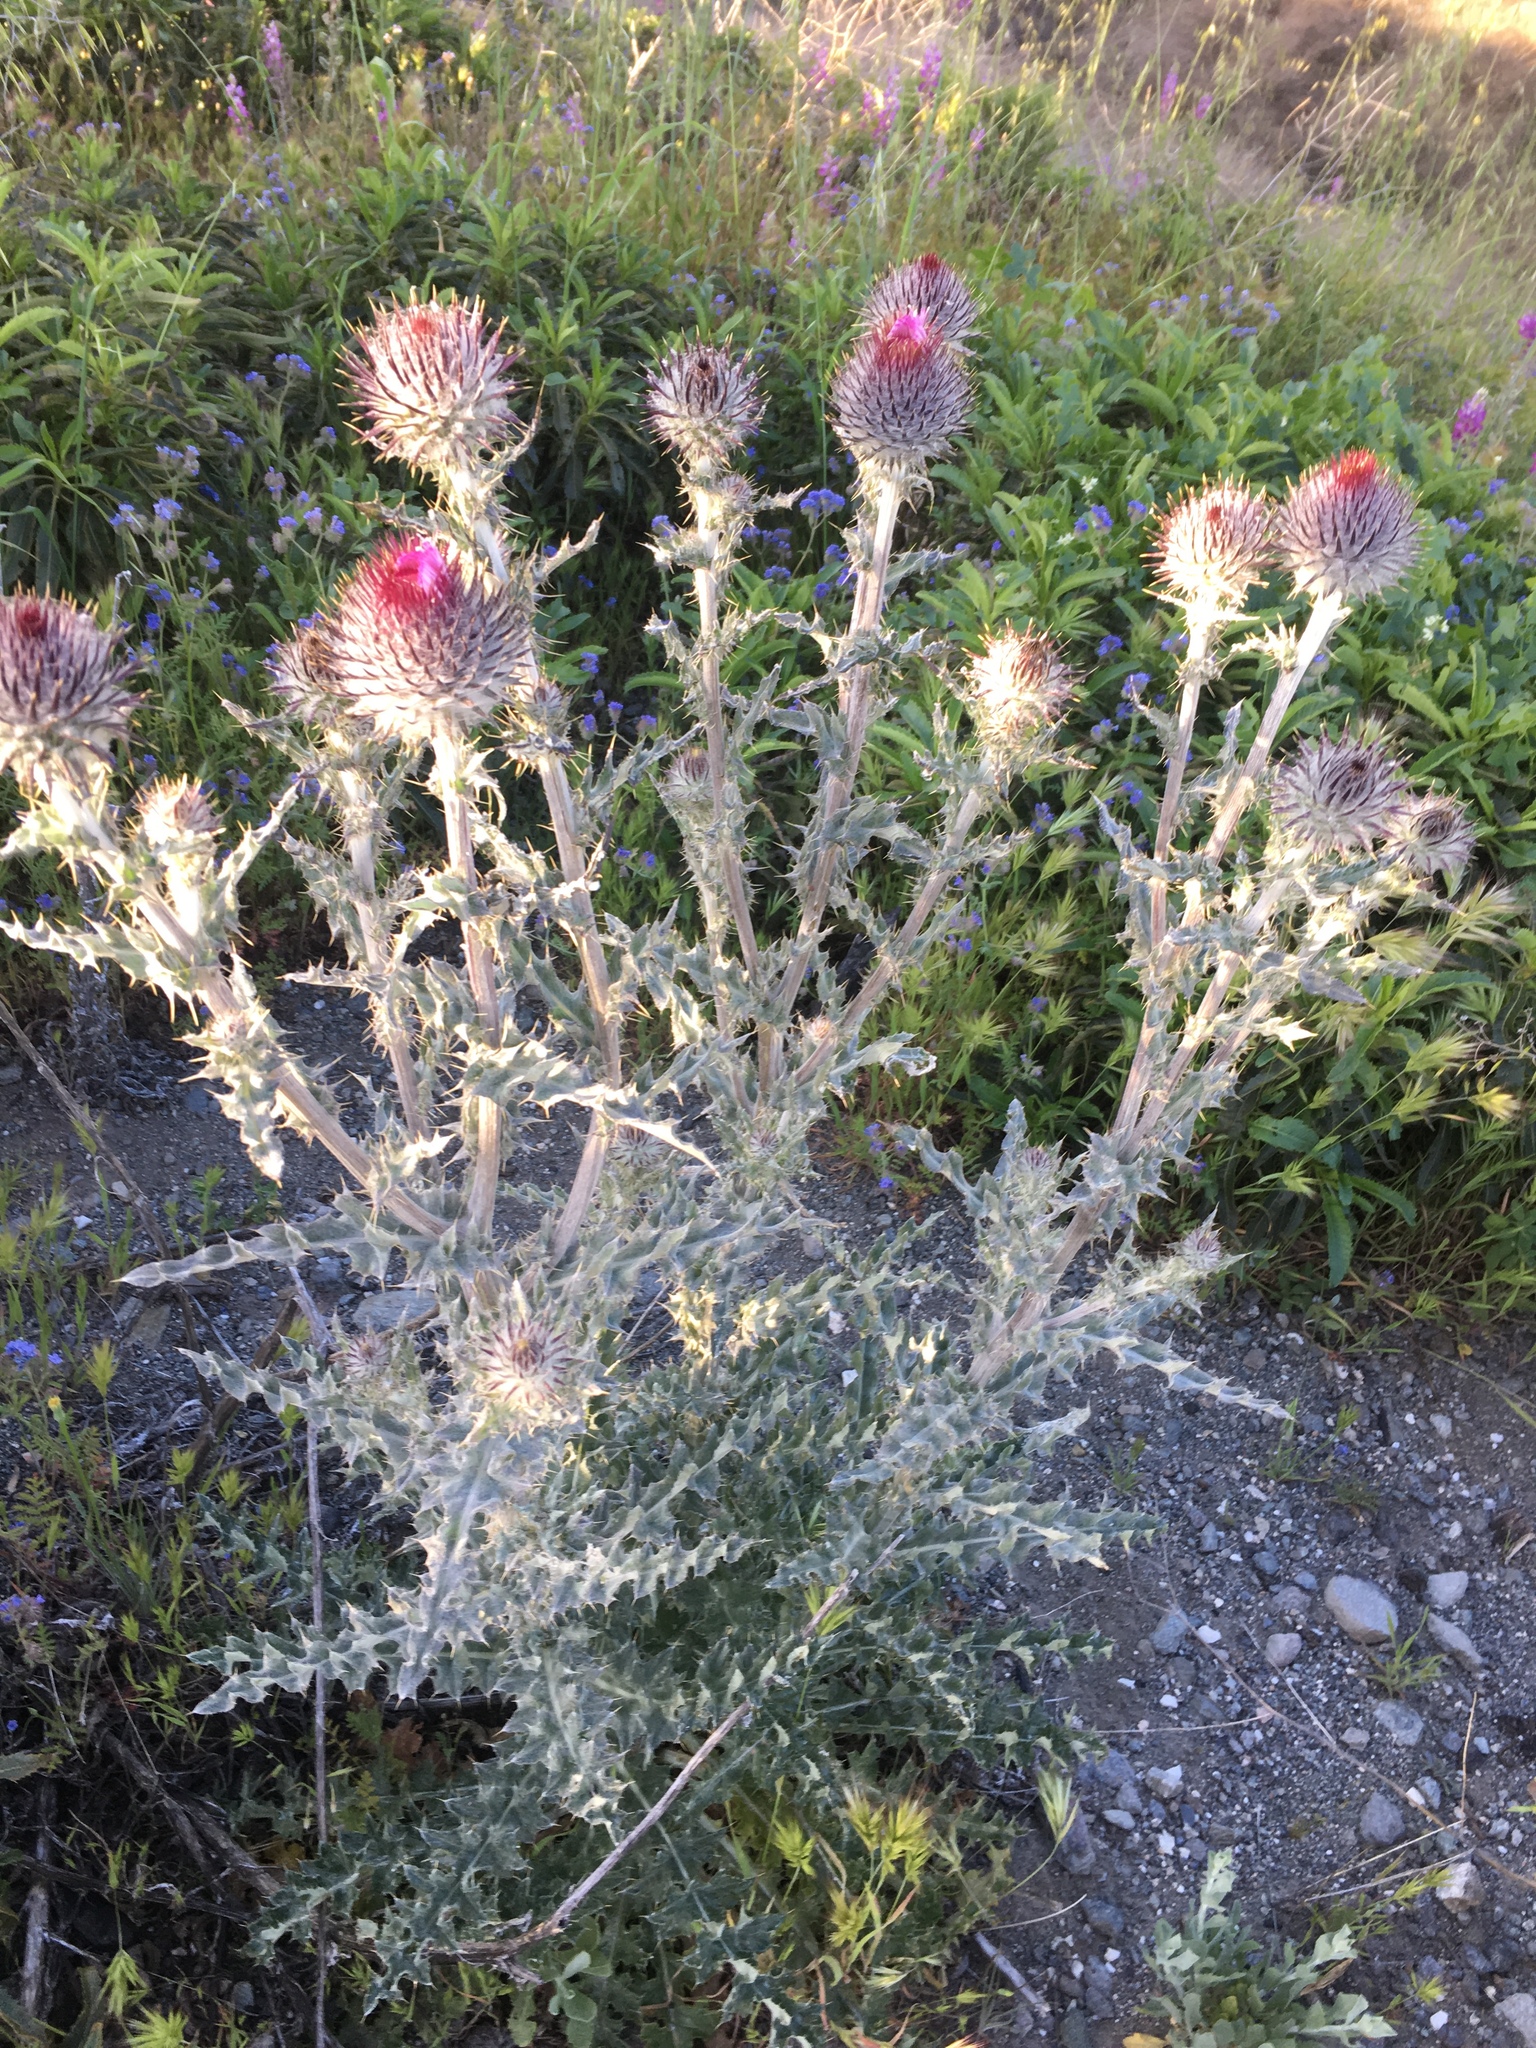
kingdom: Plantae
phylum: Tracheophyta
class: Magnoliopsida
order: Asterales
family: Asteraceae
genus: Cirsium
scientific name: Cirsium occidentale
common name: Western thistle
